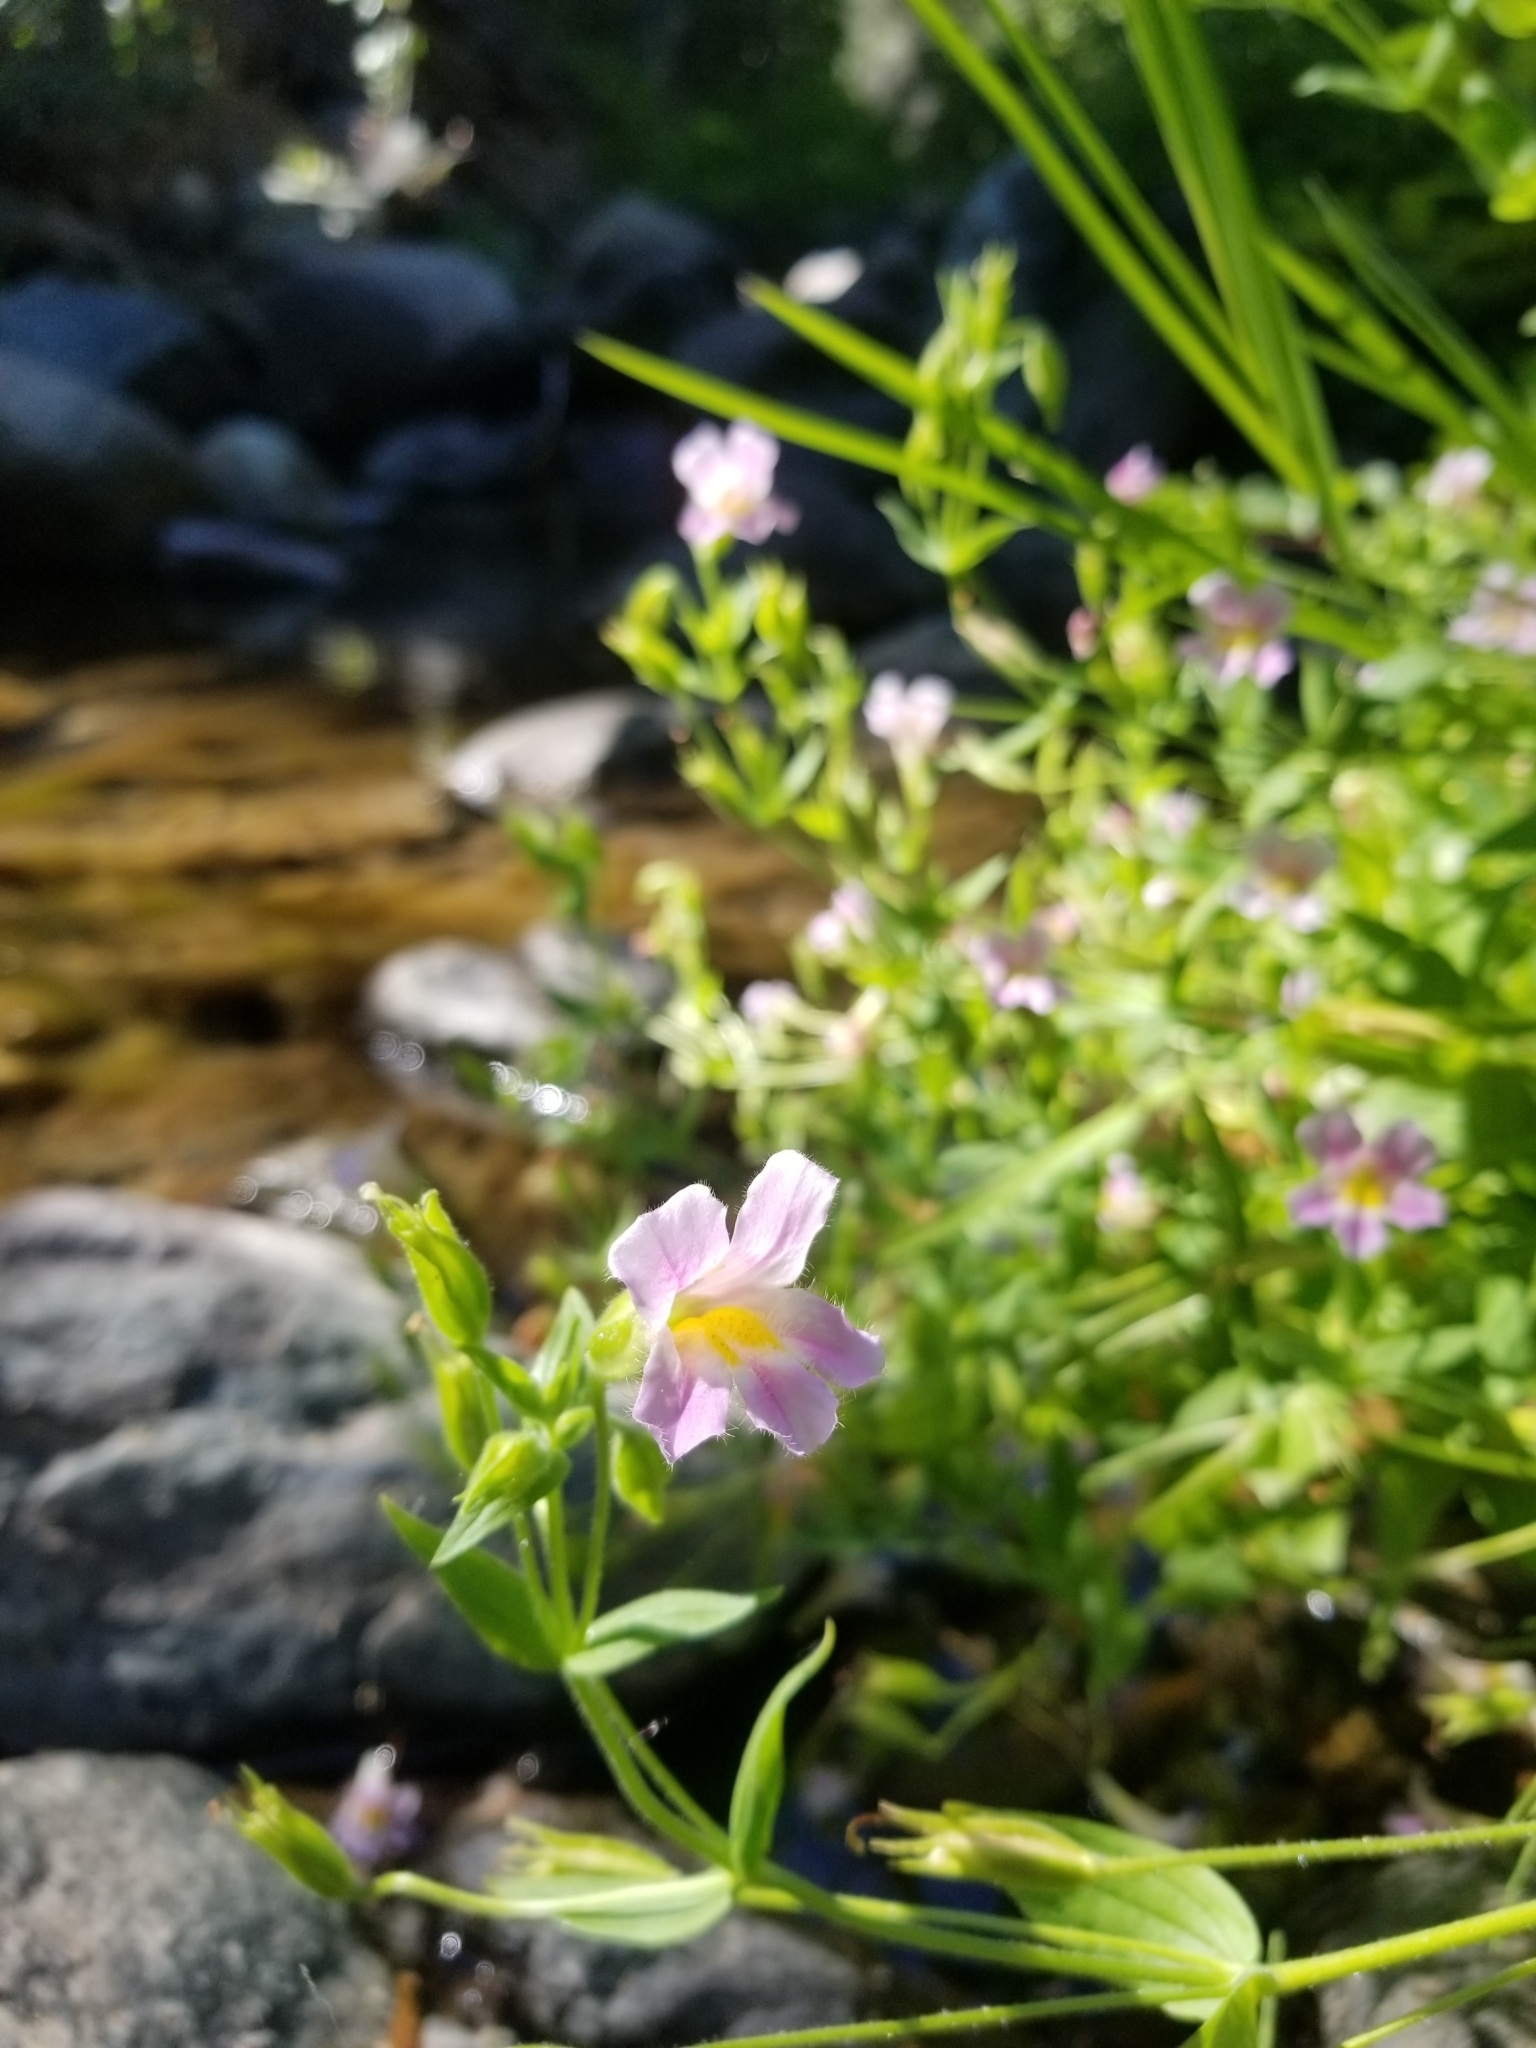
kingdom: Plantae
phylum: Tracheophyta
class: Magnoliopsida
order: Lamiales
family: Phrymaceae
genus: Erythranthe
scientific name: Erythranthe erubescens
